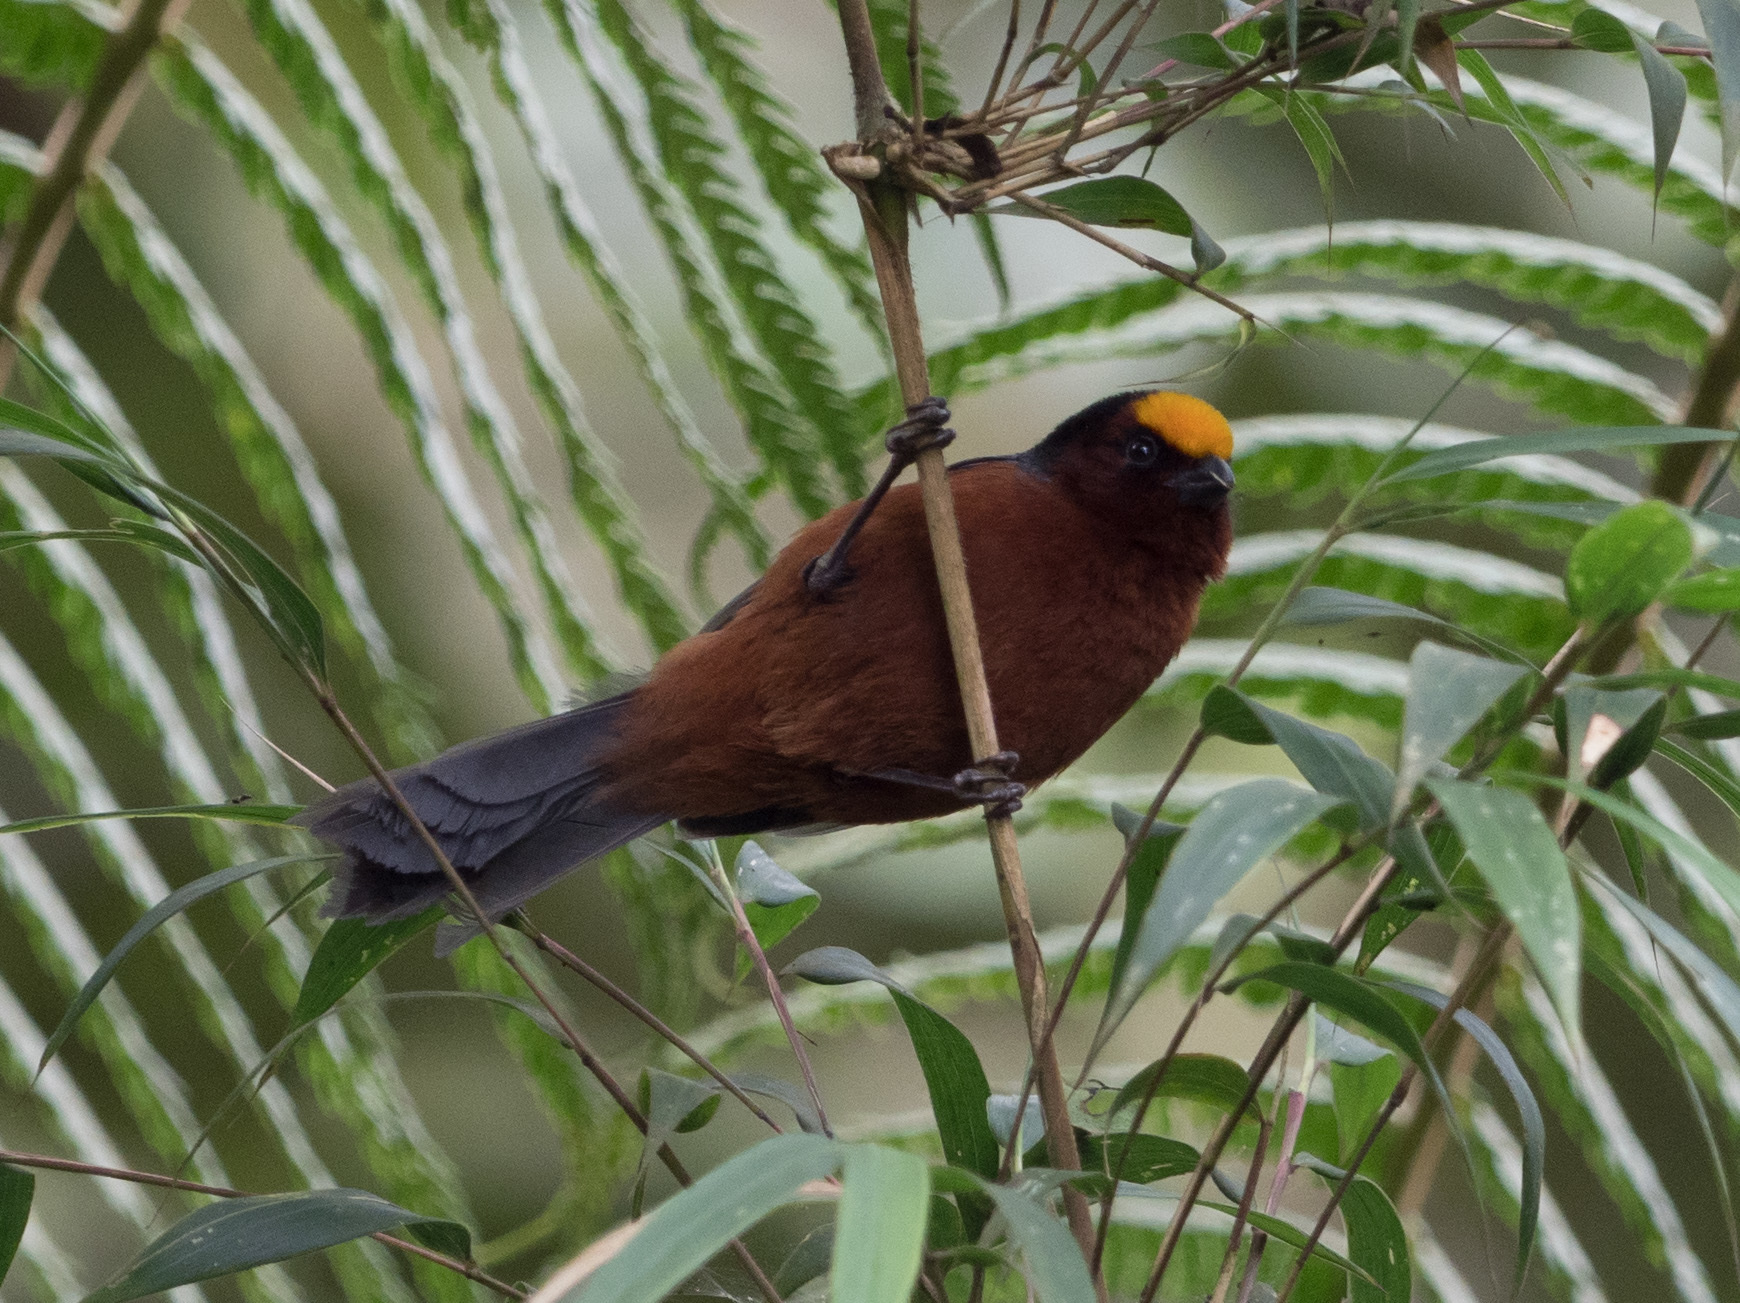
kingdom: Animalia
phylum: Chordata
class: Aves
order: Passeriformes
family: Thraupidae
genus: Catamblyrhynchus
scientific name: Catamblyrhynchus diadema
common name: Plushcap
